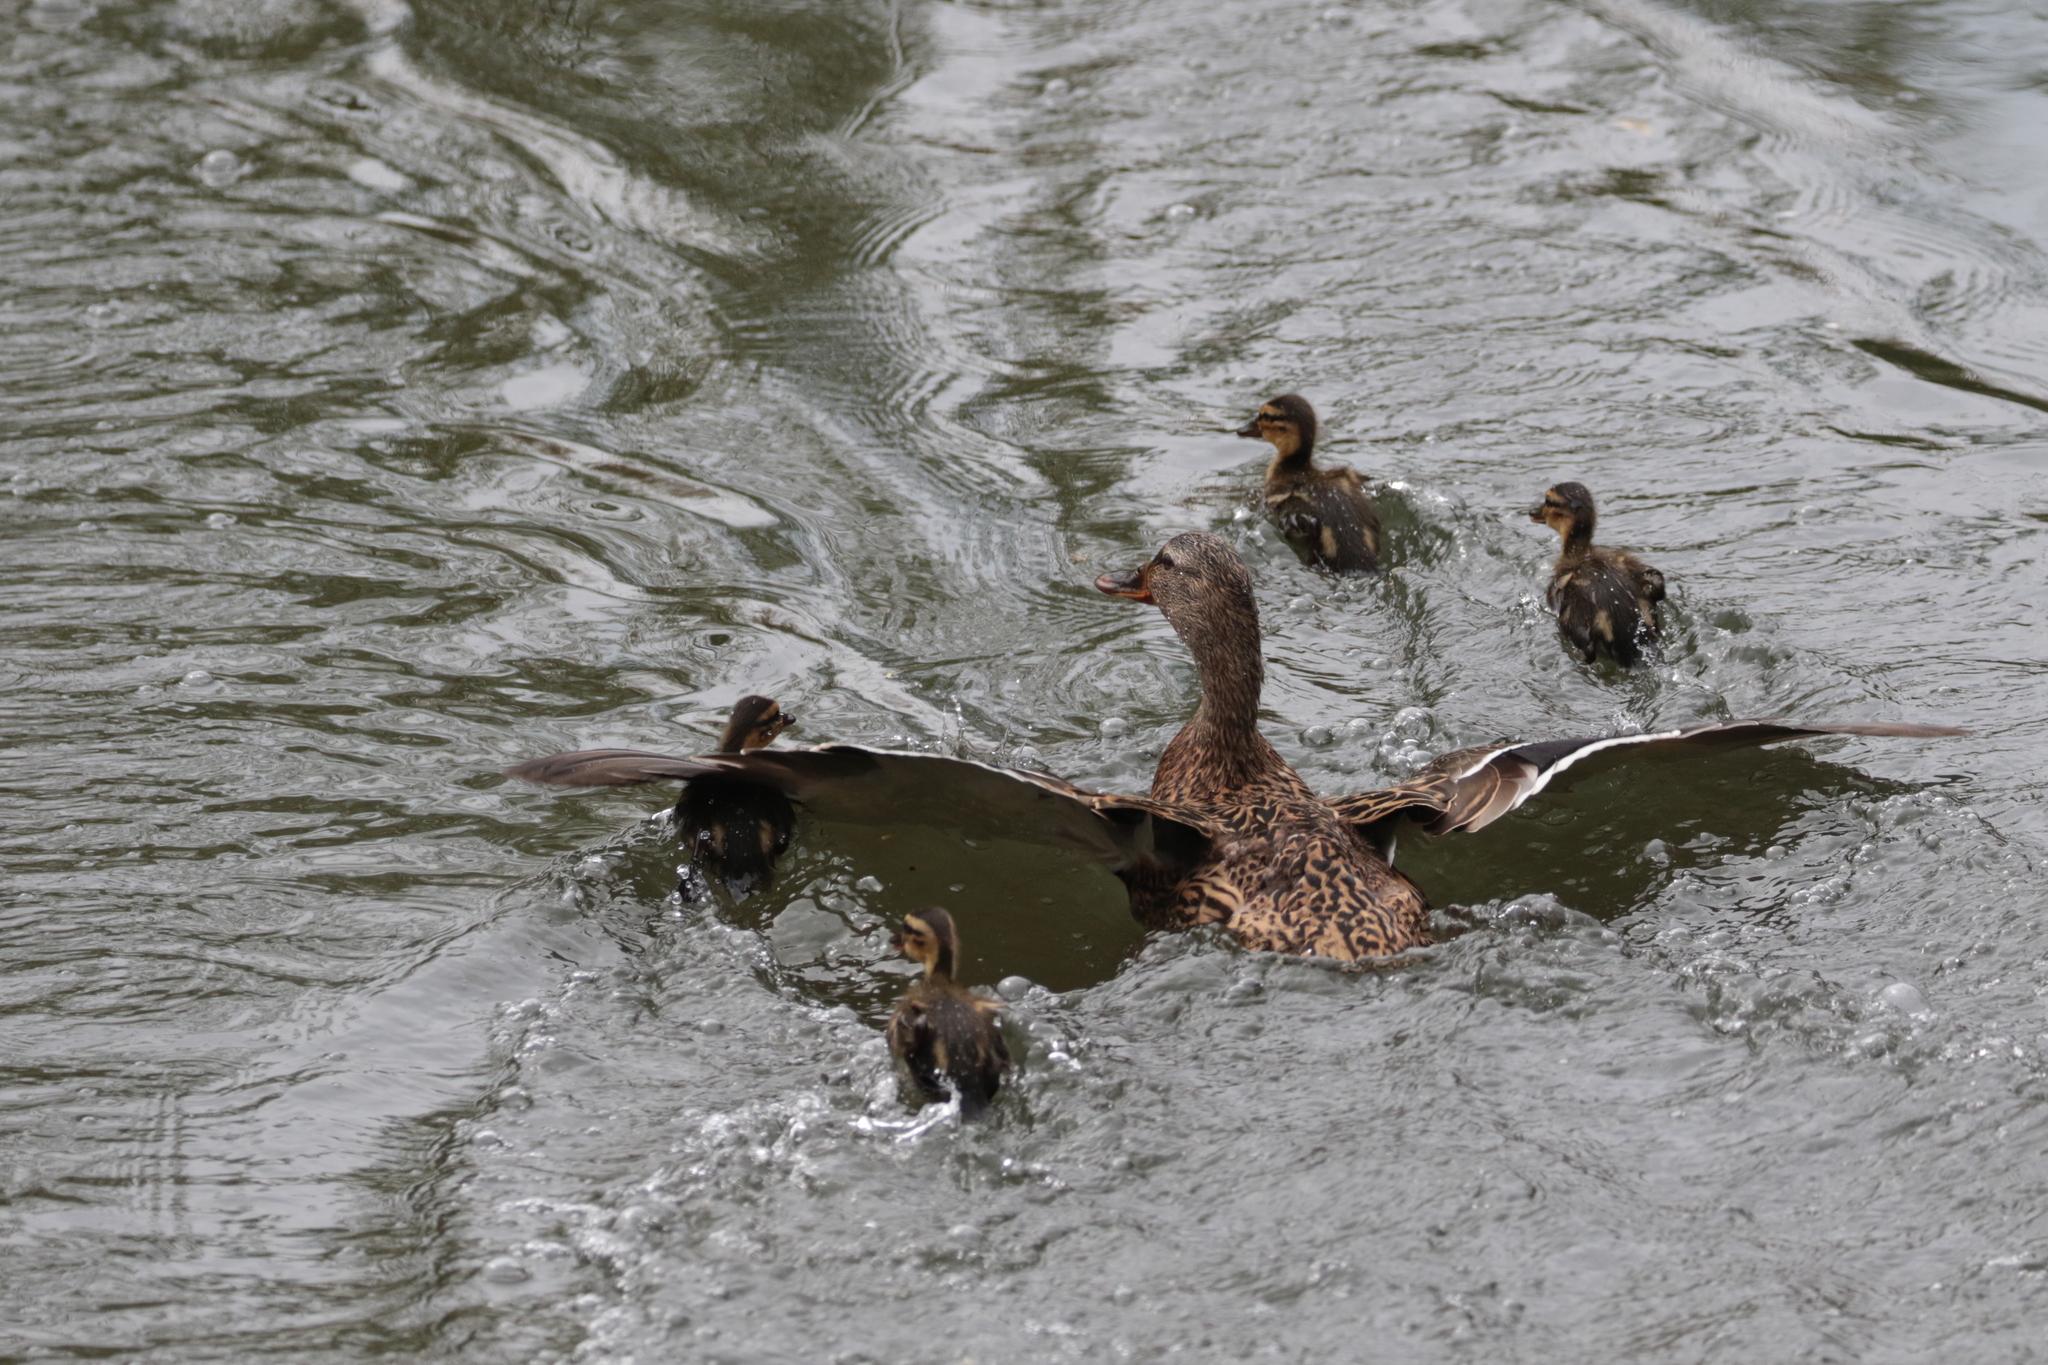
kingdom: Animalia
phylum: Chordata
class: Aves
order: Anseriformes
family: Anatidae
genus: Anas
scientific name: Anas platyrhynchos
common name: Mallard
